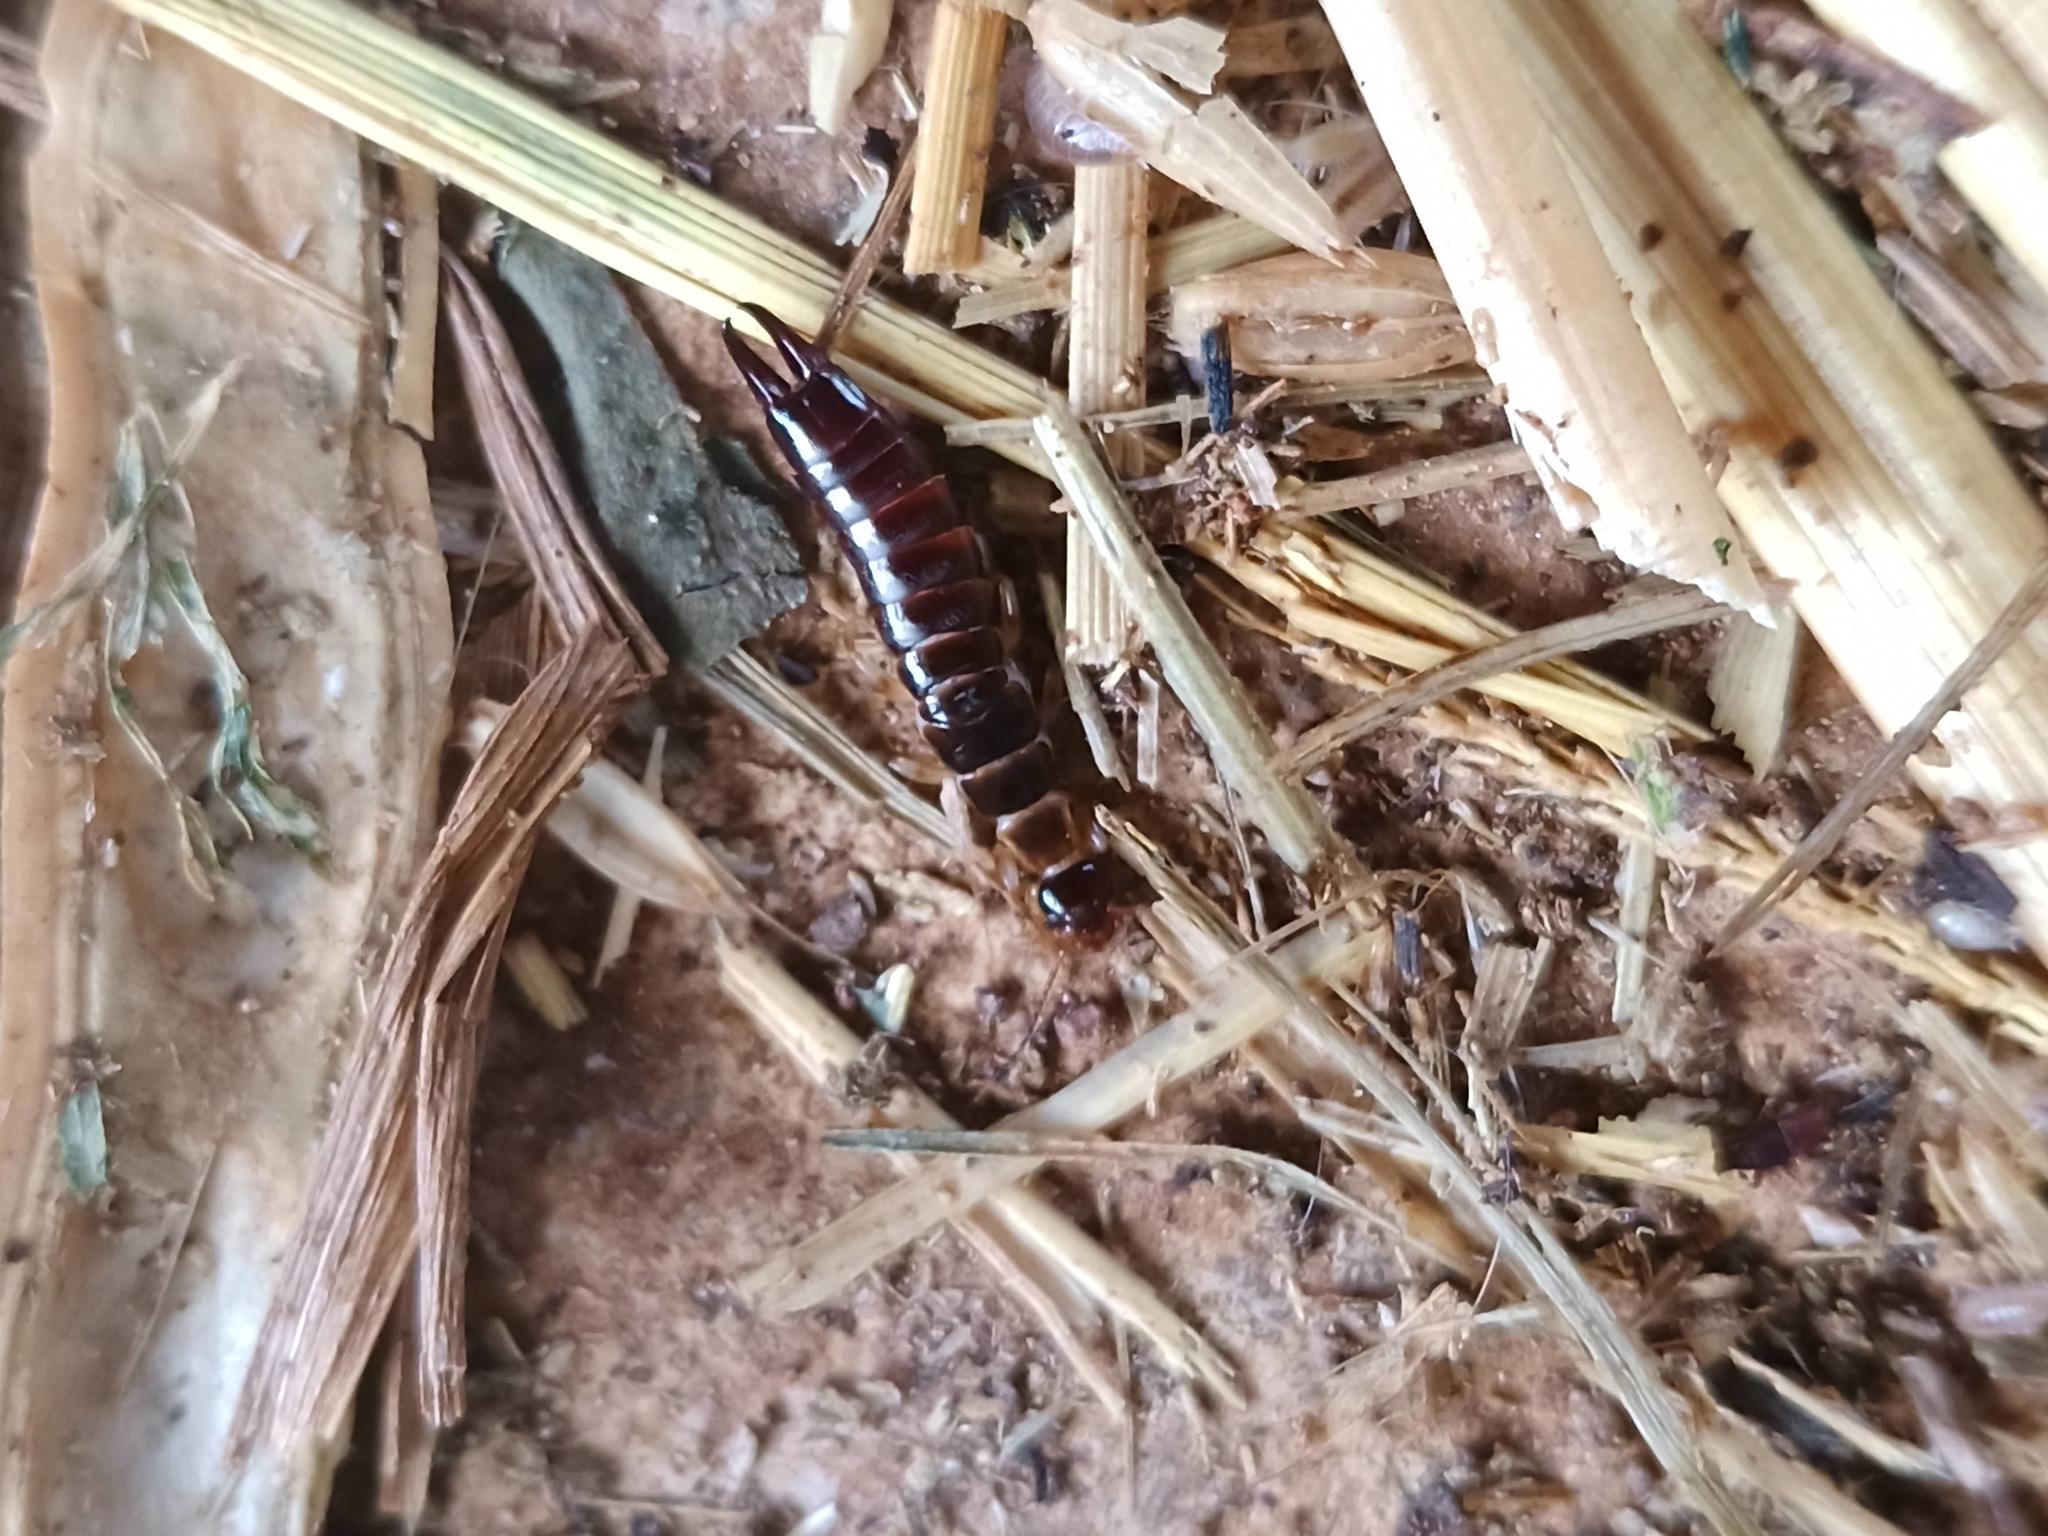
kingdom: Animalia
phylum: Arthropoda
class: Insecta
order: Dermaptera
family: Anisolabididae
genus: Euborellia
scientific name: Euborellia annulipes
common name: Ringlegged earwig
